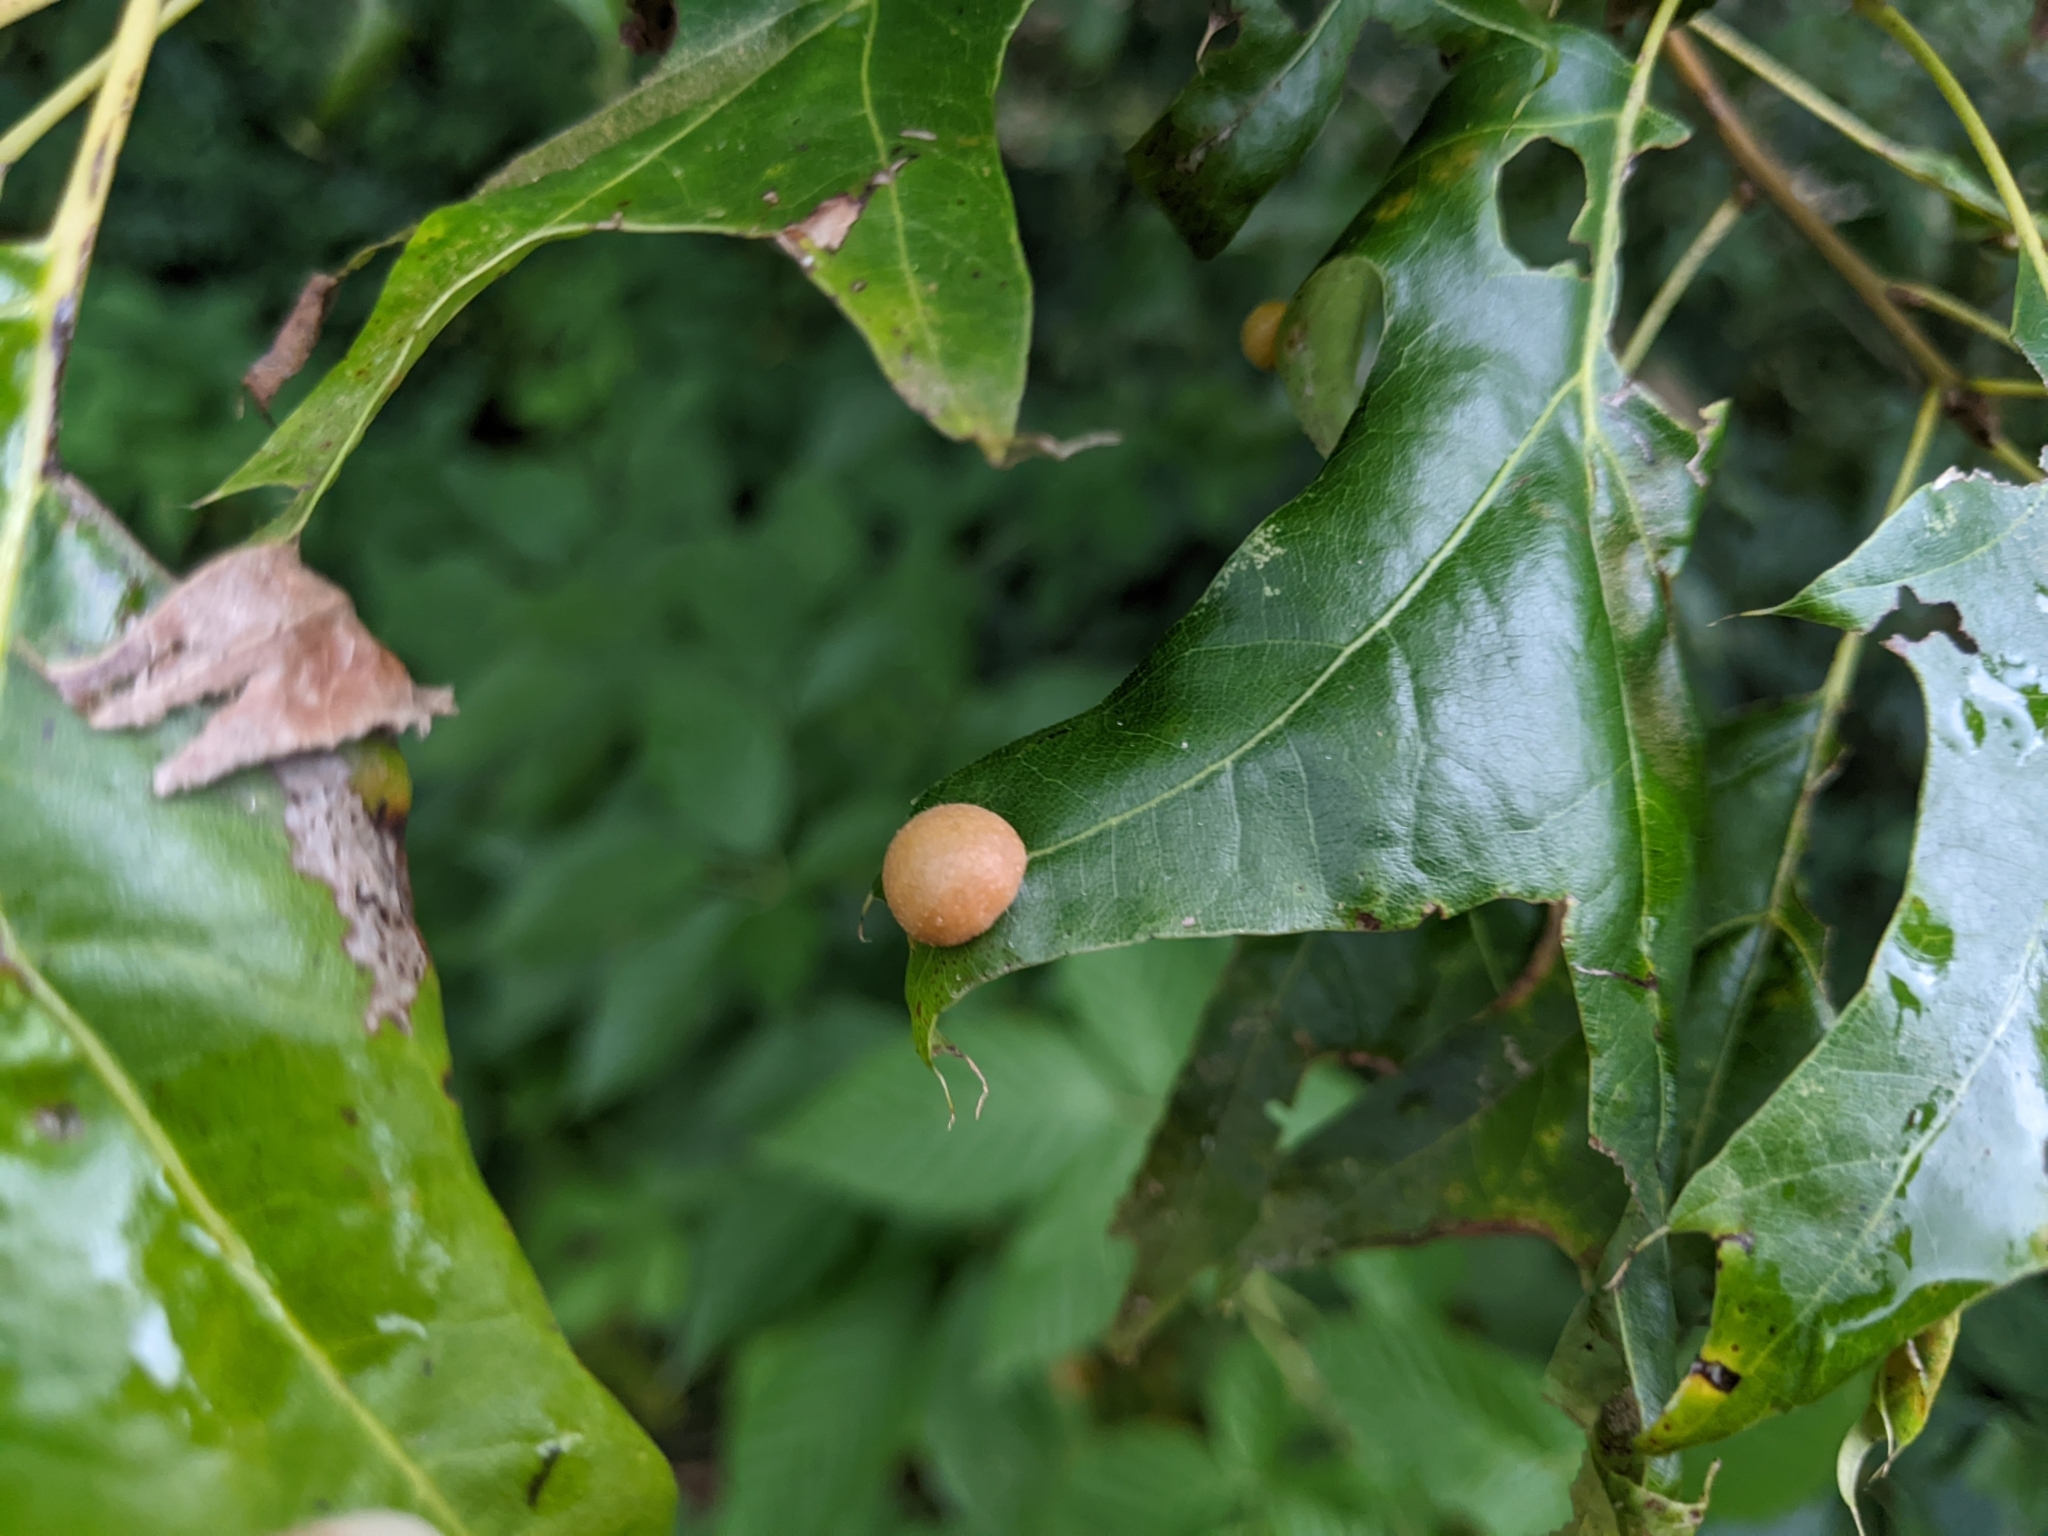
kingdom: Animalia
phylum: Arthropoda
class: Insecta
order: Diptera
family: Cecidomyiidae
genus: Polystepha
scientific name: Polystepha pilulae
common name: Oak leaf gall midge
